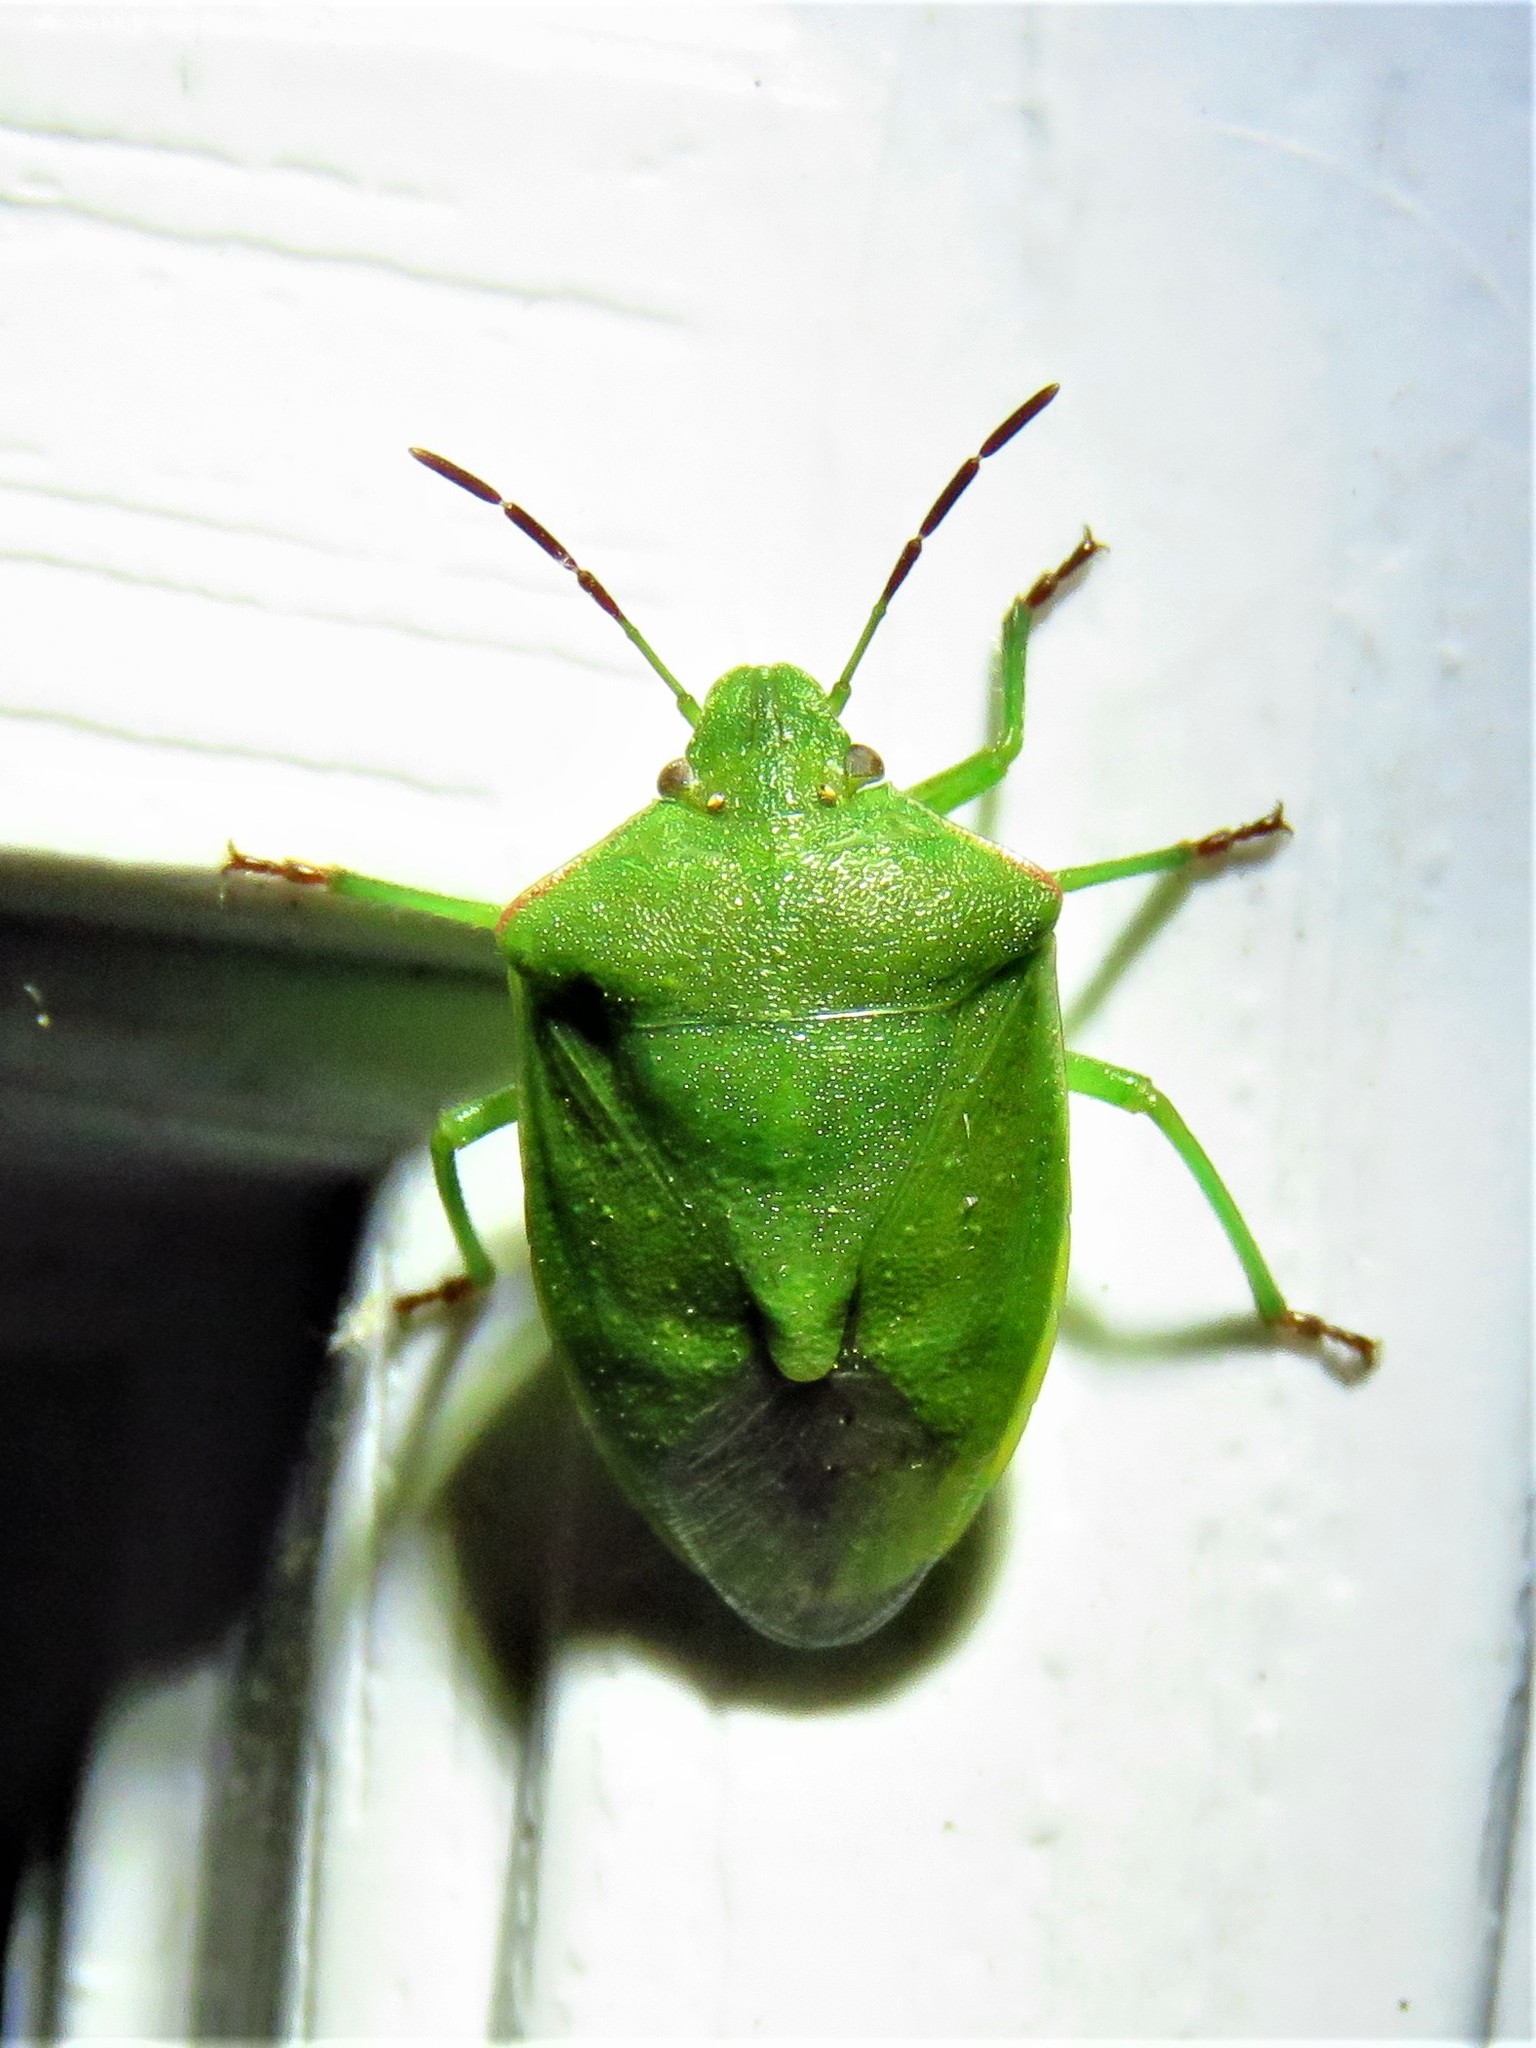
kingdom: Animalia
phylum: Arthropoda
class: Insecta
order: Hemiptera
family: Pentatomidae
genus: Thyanta
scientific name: Thyanta custator
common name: Stink bug
